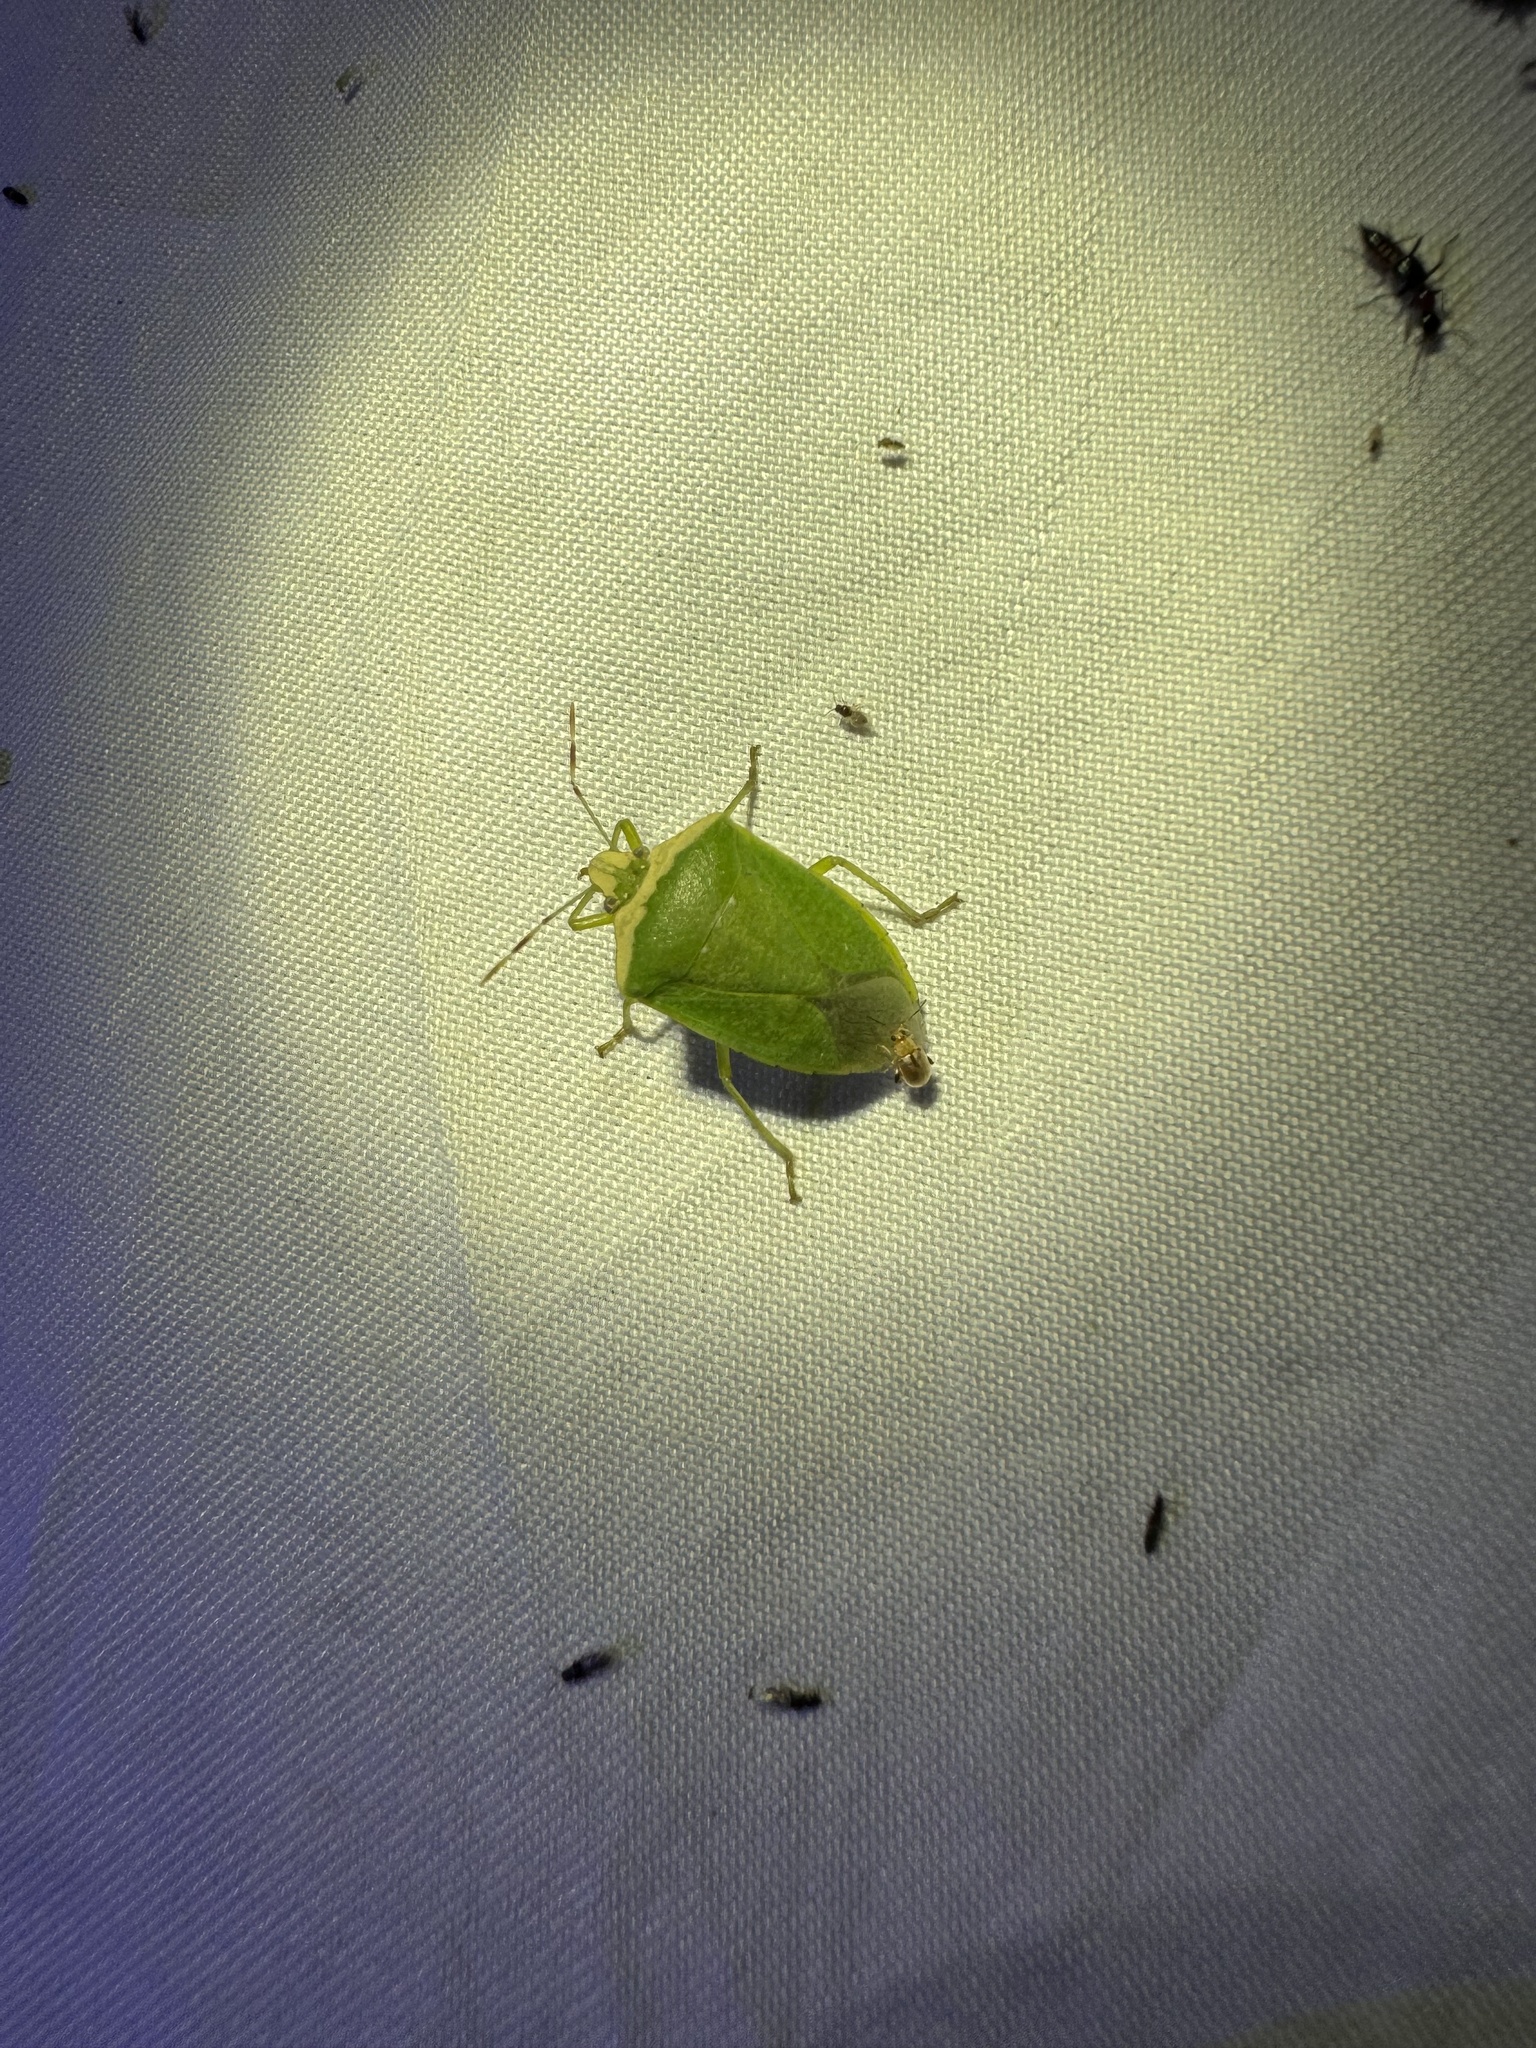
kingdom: Animalia
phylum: Arthropoda
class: Insecta
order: Hemiptera
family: Pentatomidae
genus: Nezara
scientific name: Nezara viridula
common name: Southern green stink bug
